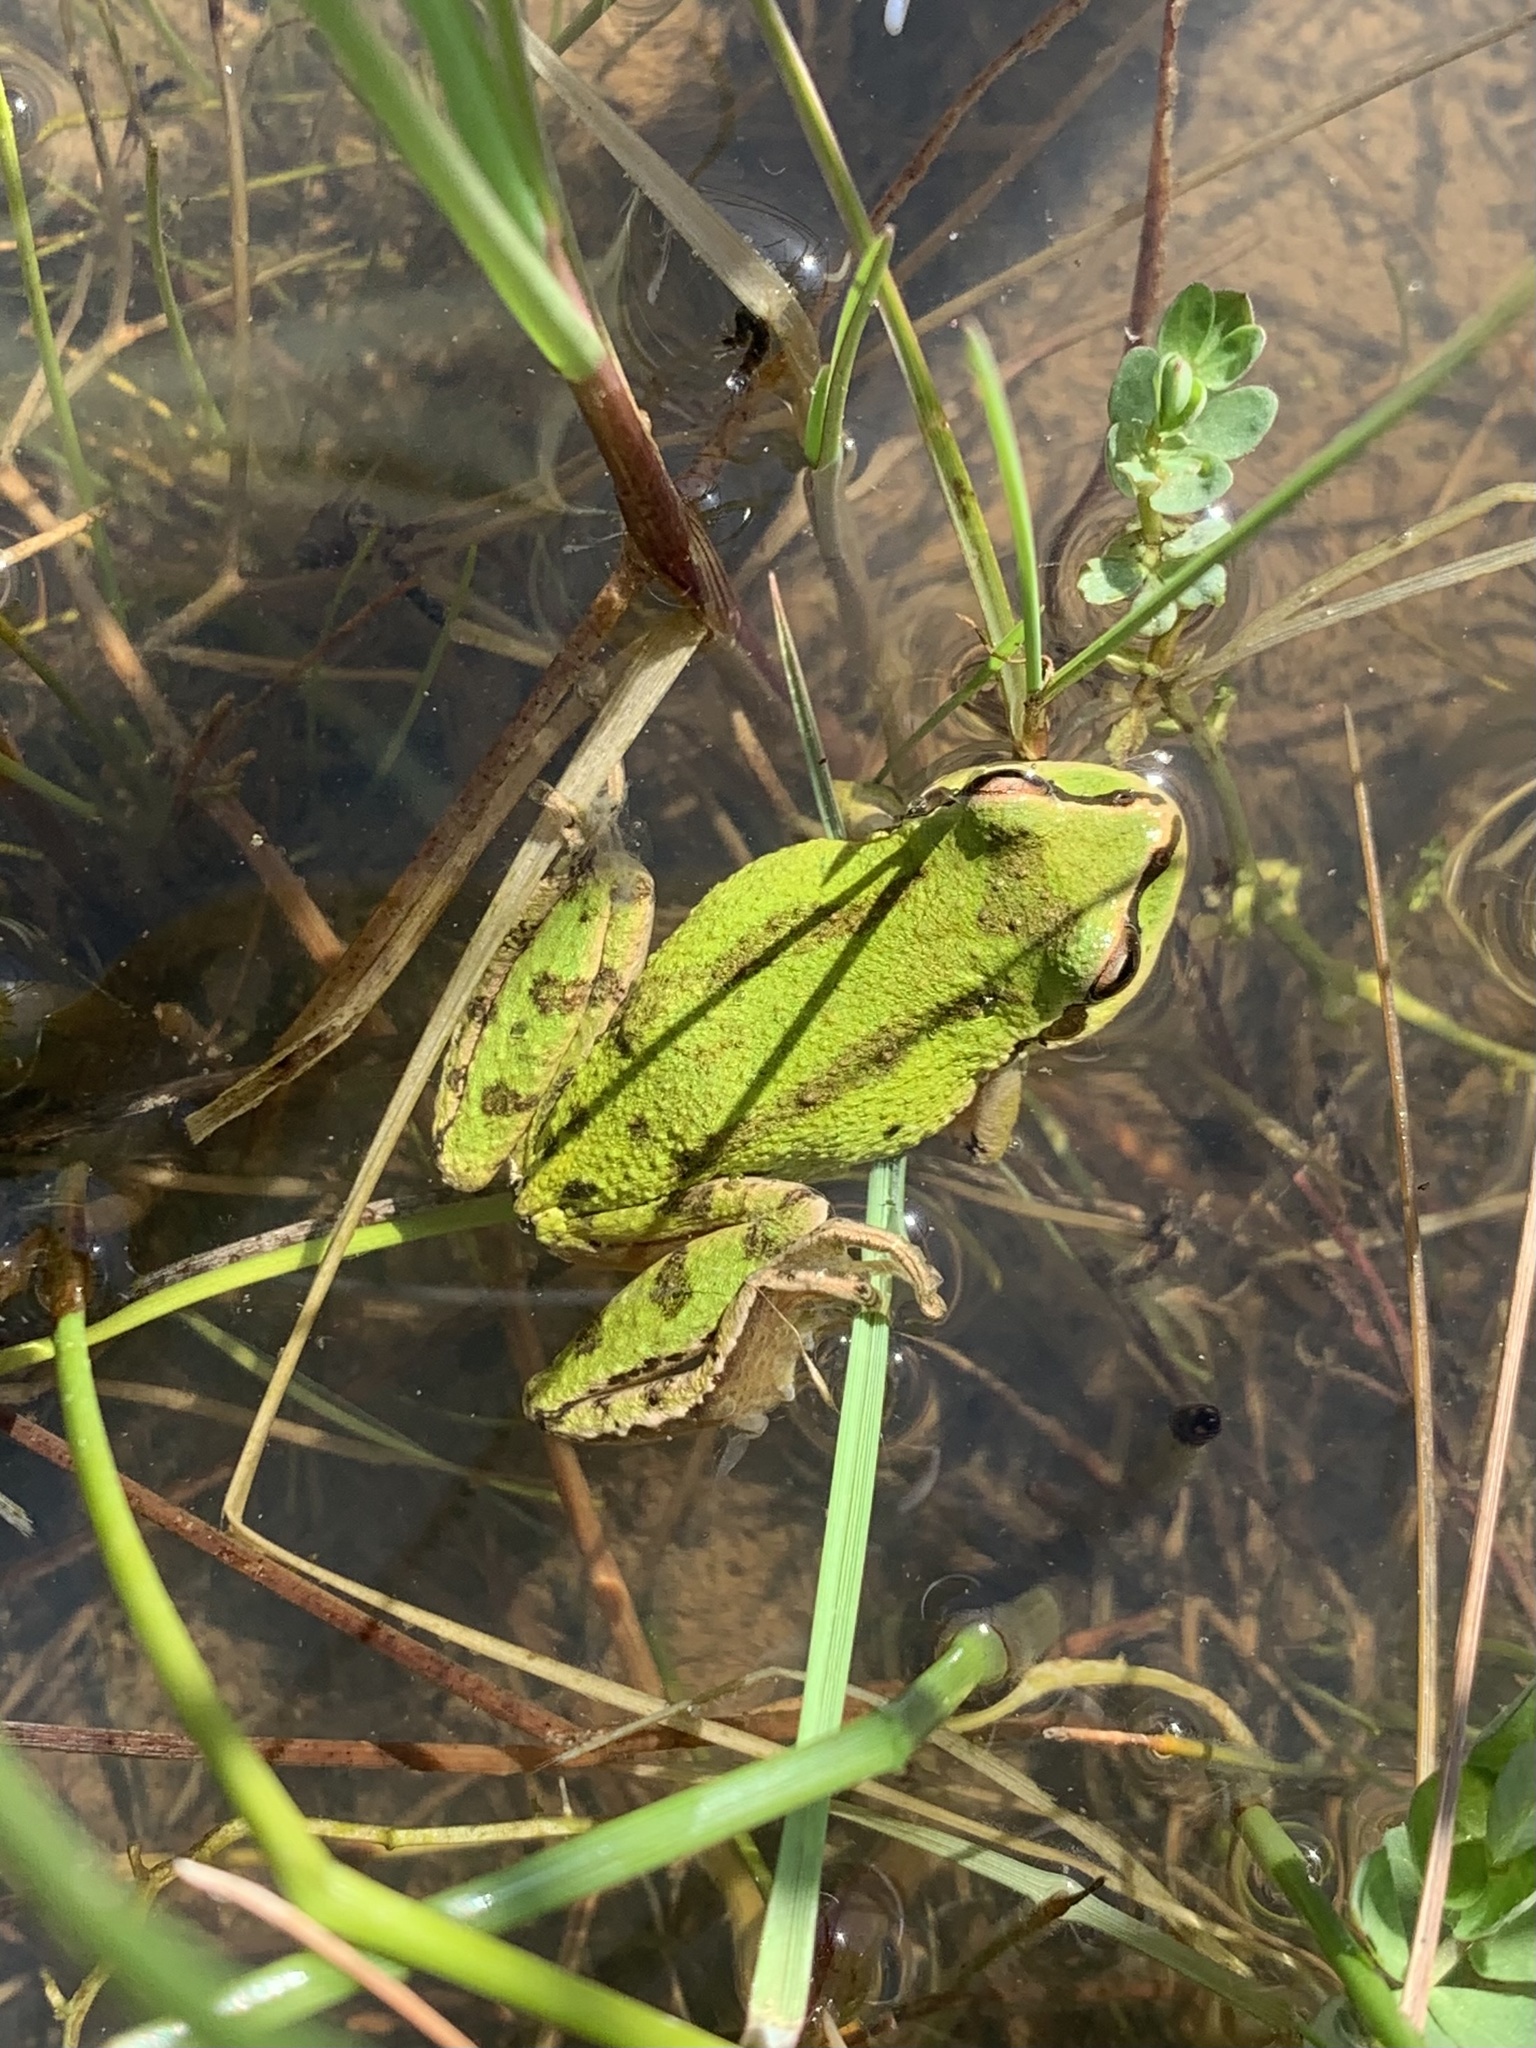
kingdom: Animalia
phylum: Chordata
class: Amphibia
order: Anura
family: Hylidae
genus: Pseudacris
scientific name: Pseudacris regilla
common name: Pacific chorus frog
